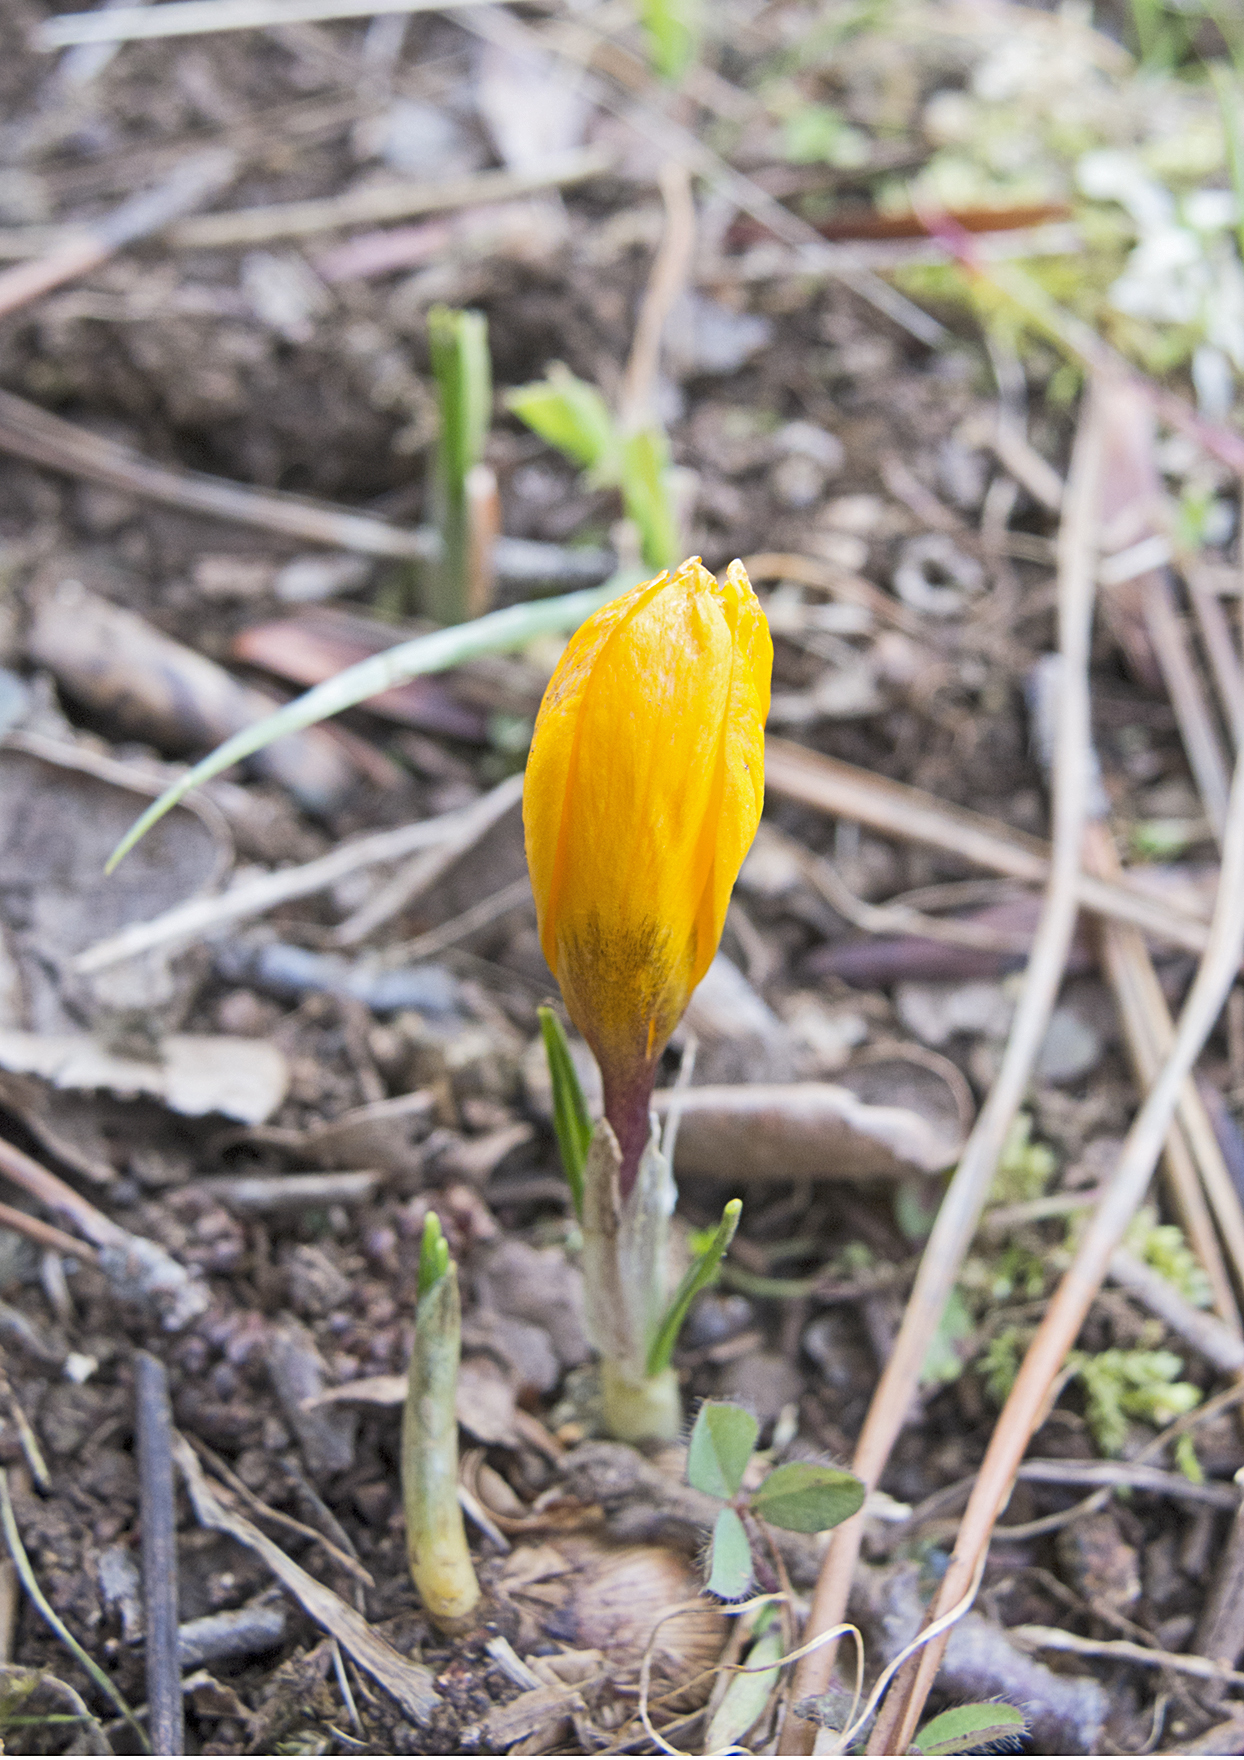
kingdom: Plantae
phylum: Tracheophyta
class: Liliopsida
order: Asparagales
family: Iridaceae
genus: Crocus
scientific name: Crocus olivieri
